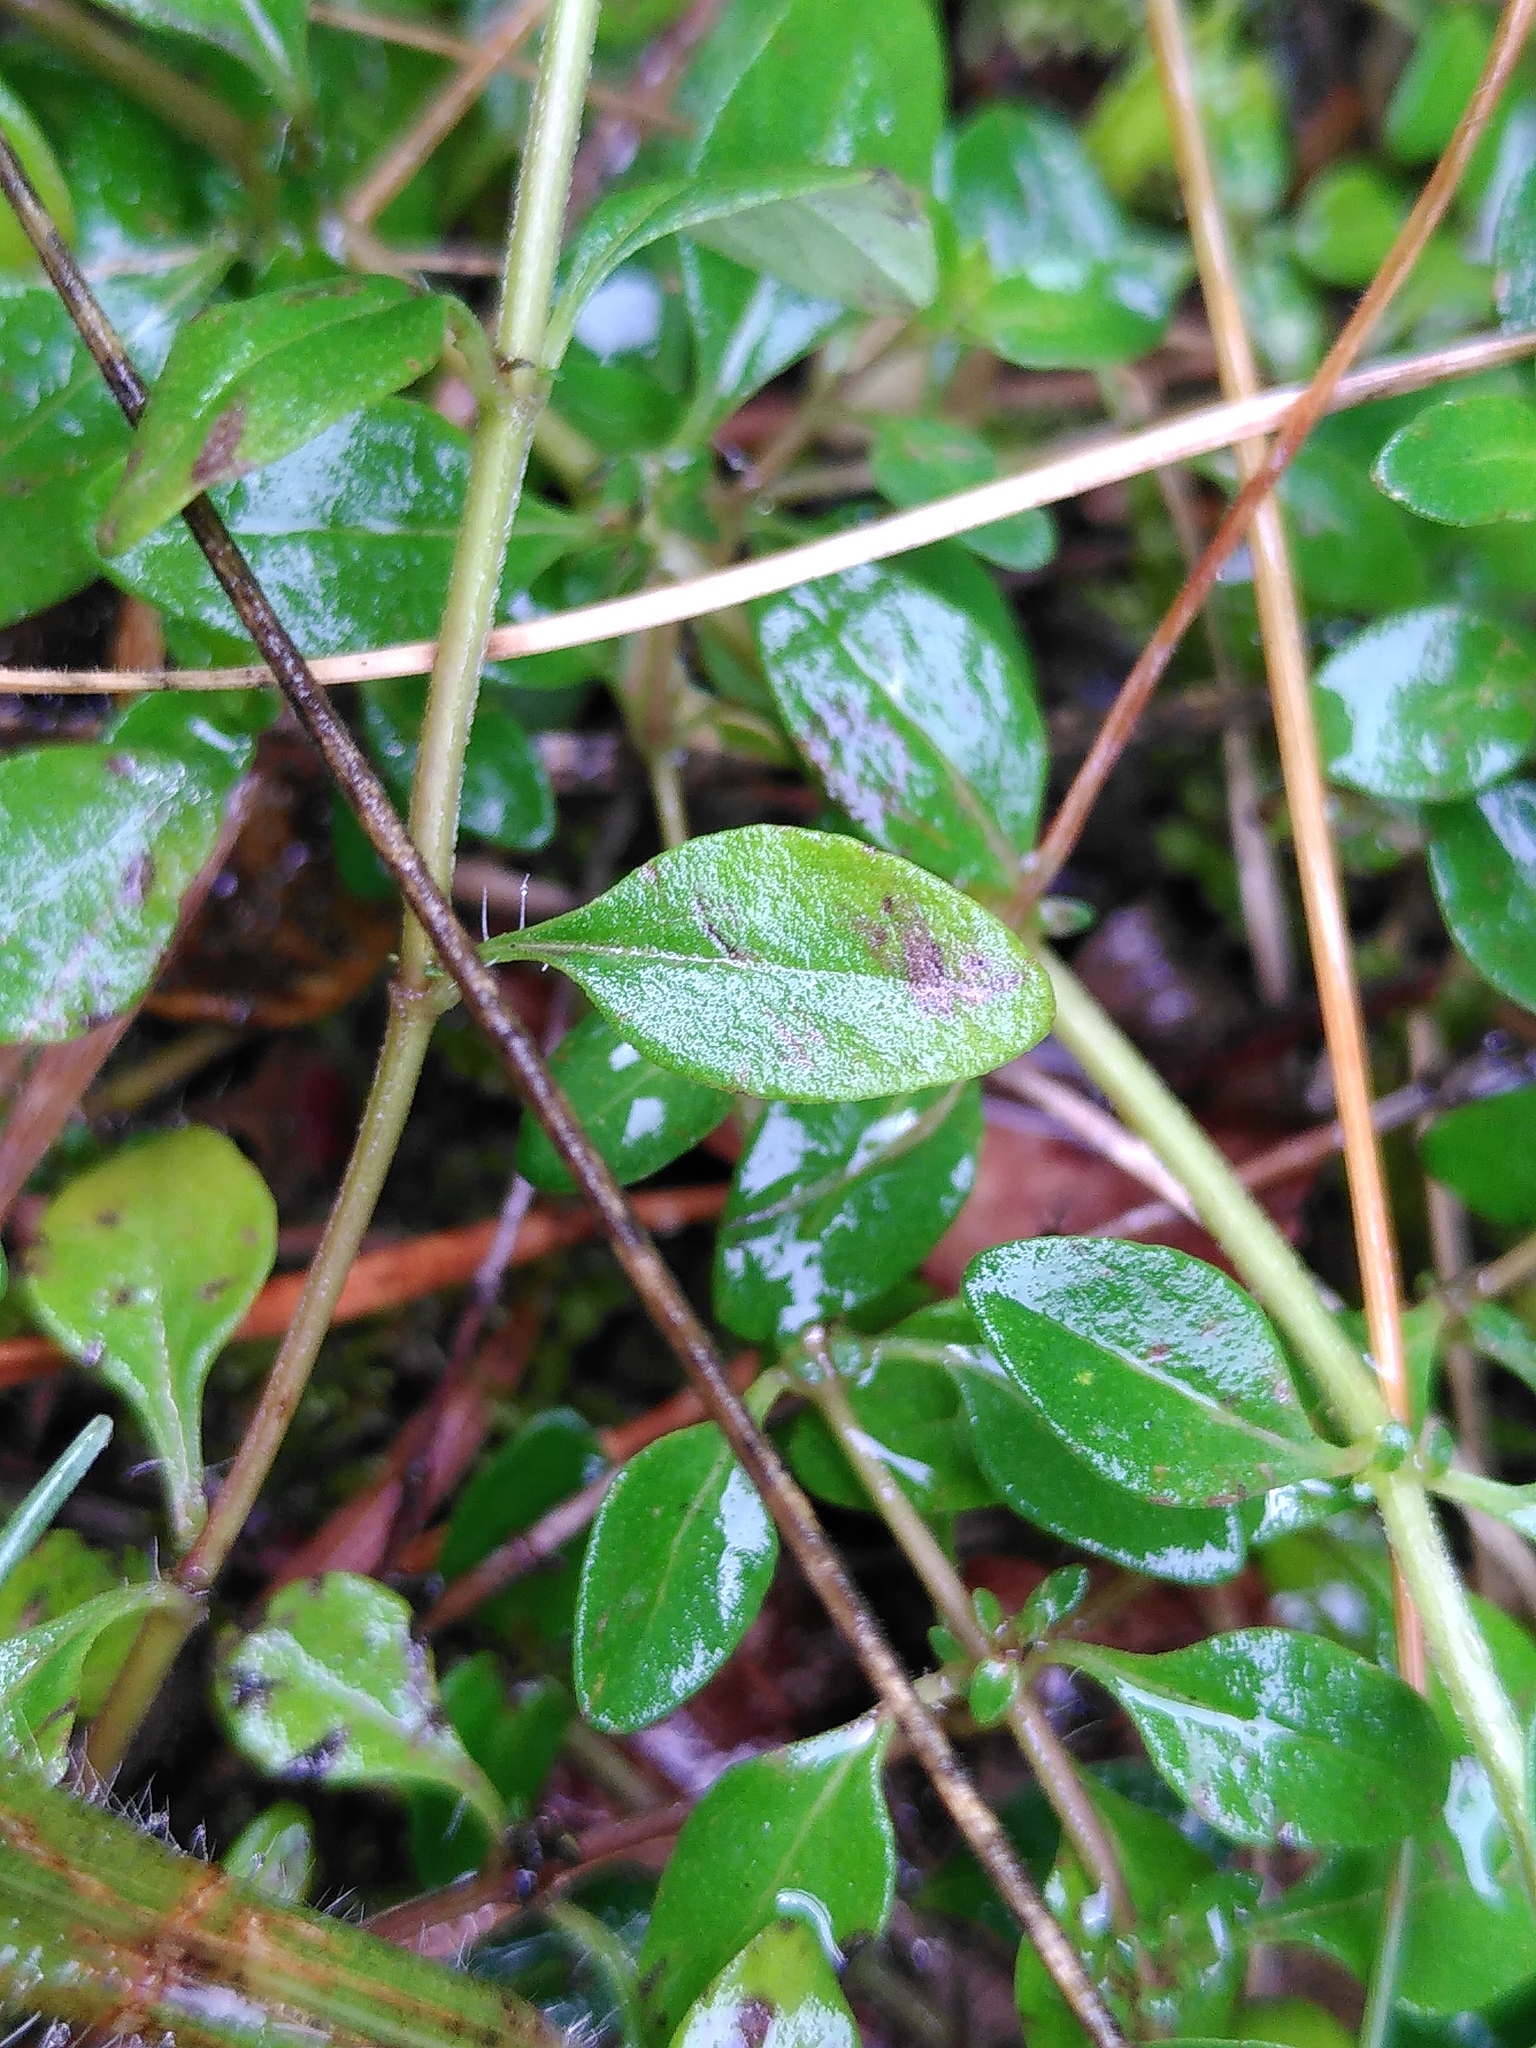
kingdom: Plantae
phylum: Tracheophyta
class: Magnoliopsida
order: Lamiales
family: Lamiaceae
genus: Thymus
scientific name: Thymus pulegioides
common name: Large thyme
